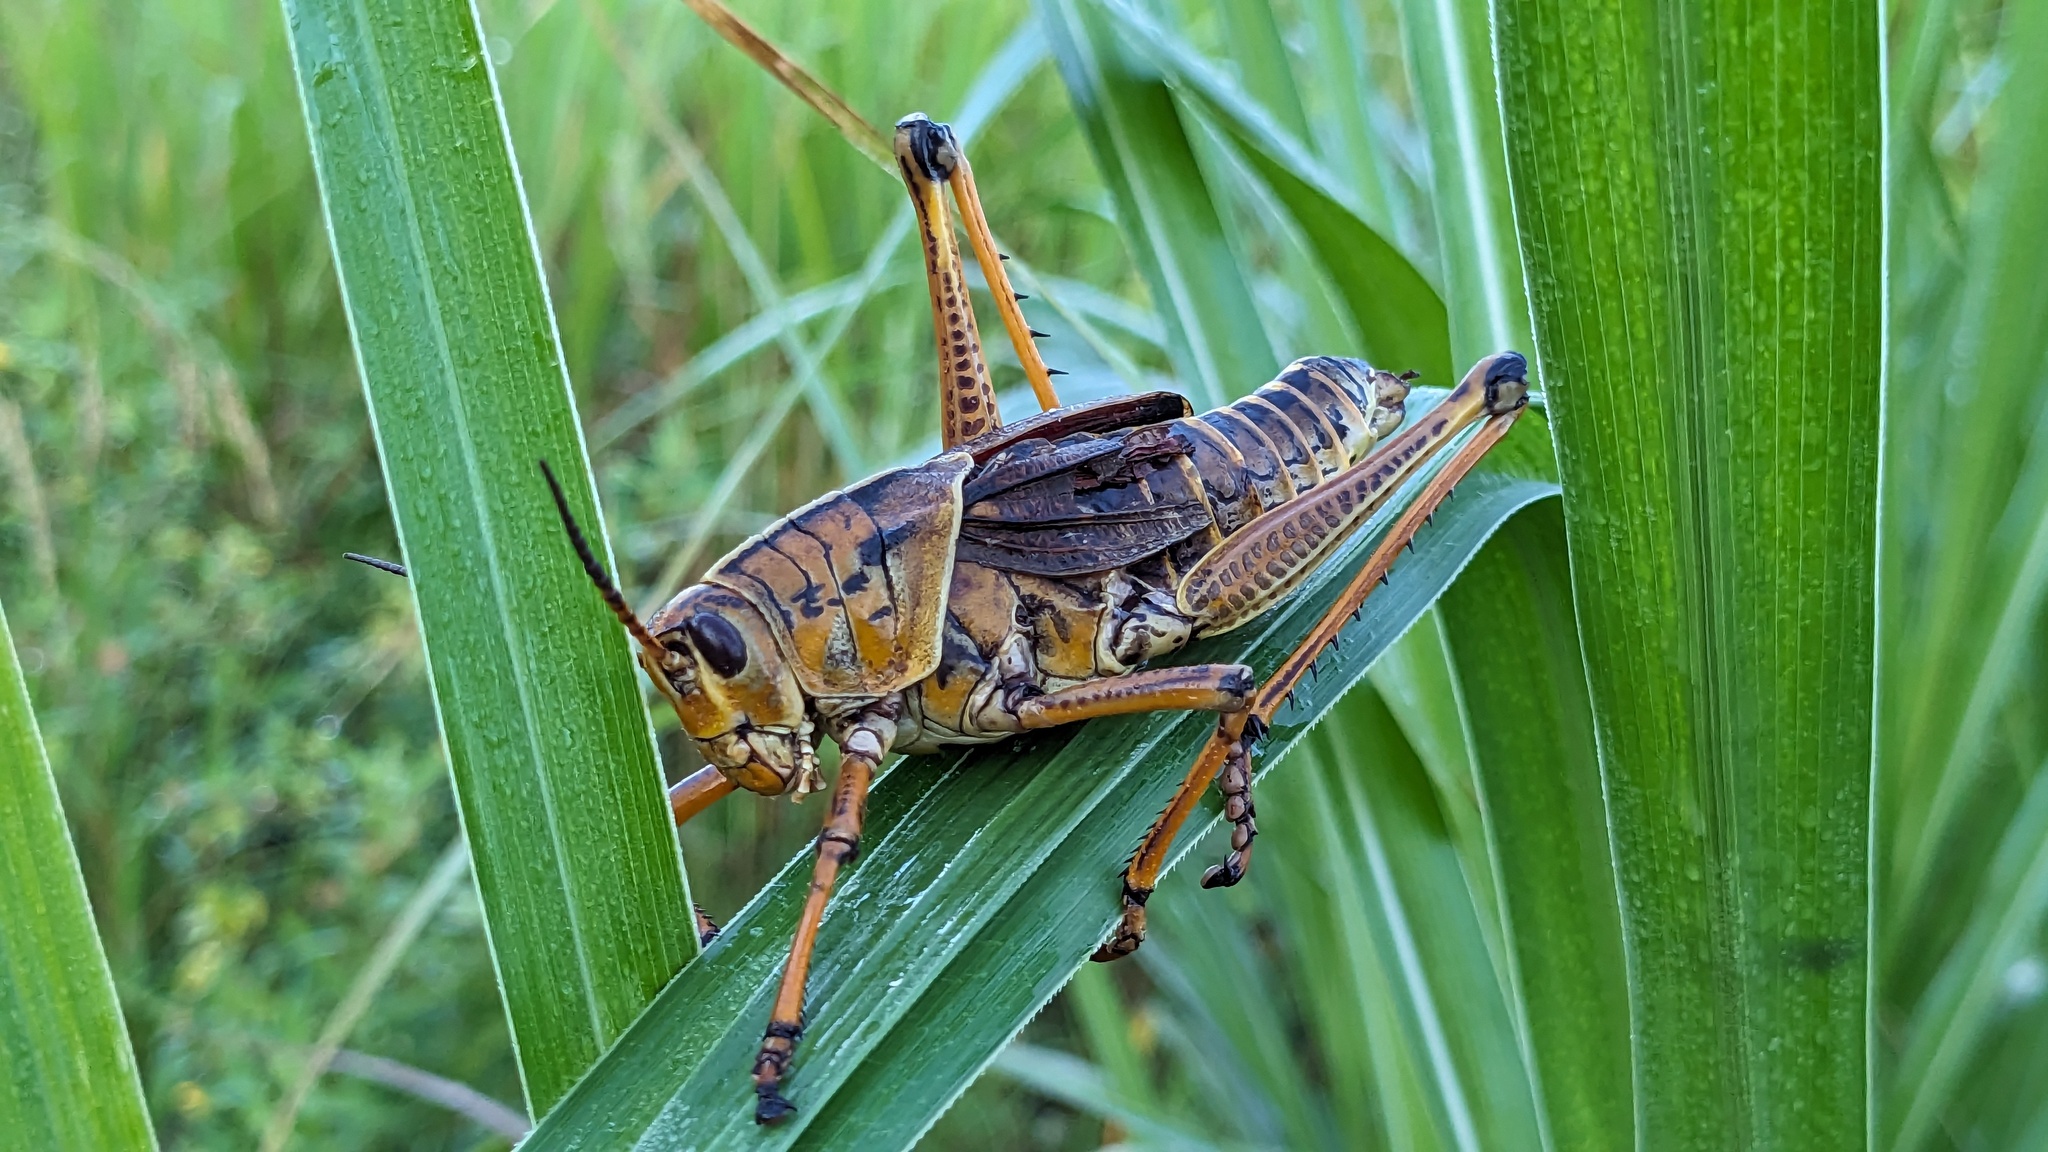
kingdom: Animalia
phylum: Arthropoda
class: Insecta
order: Orthoptera
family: Romaleidae
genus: Romalea
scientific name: Romalea microptera
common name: Eastern lubber grasshopper
